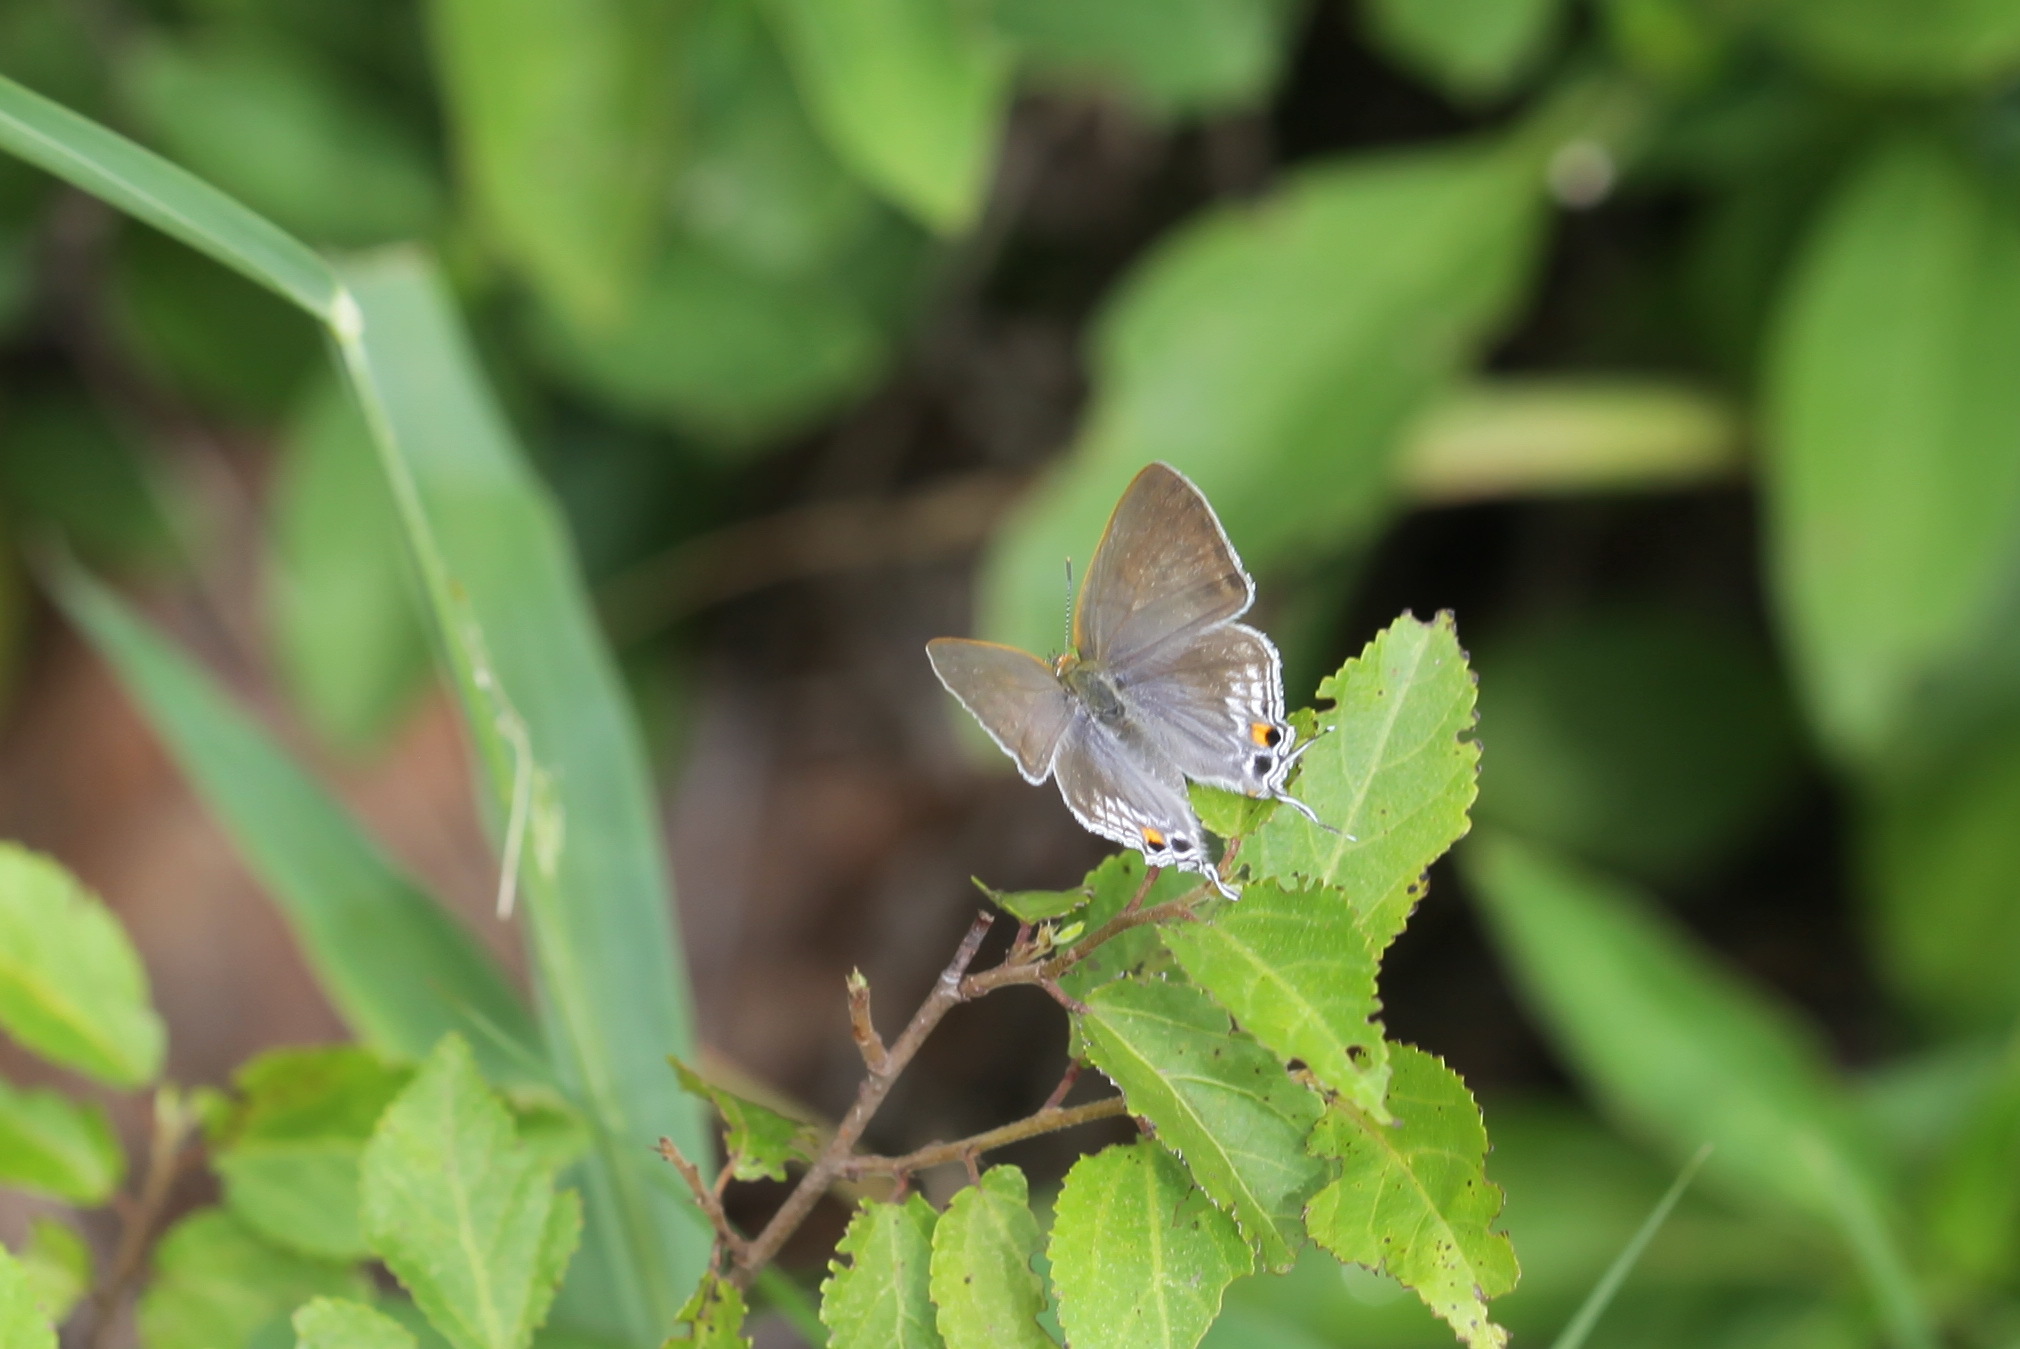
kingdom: Animalia
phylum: Arthropoda
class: Insecta
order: Lepidoptera
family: Lycaenidae
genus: Hypolycaena
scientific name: Hypolycaena philippus
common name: Common hairstreak
